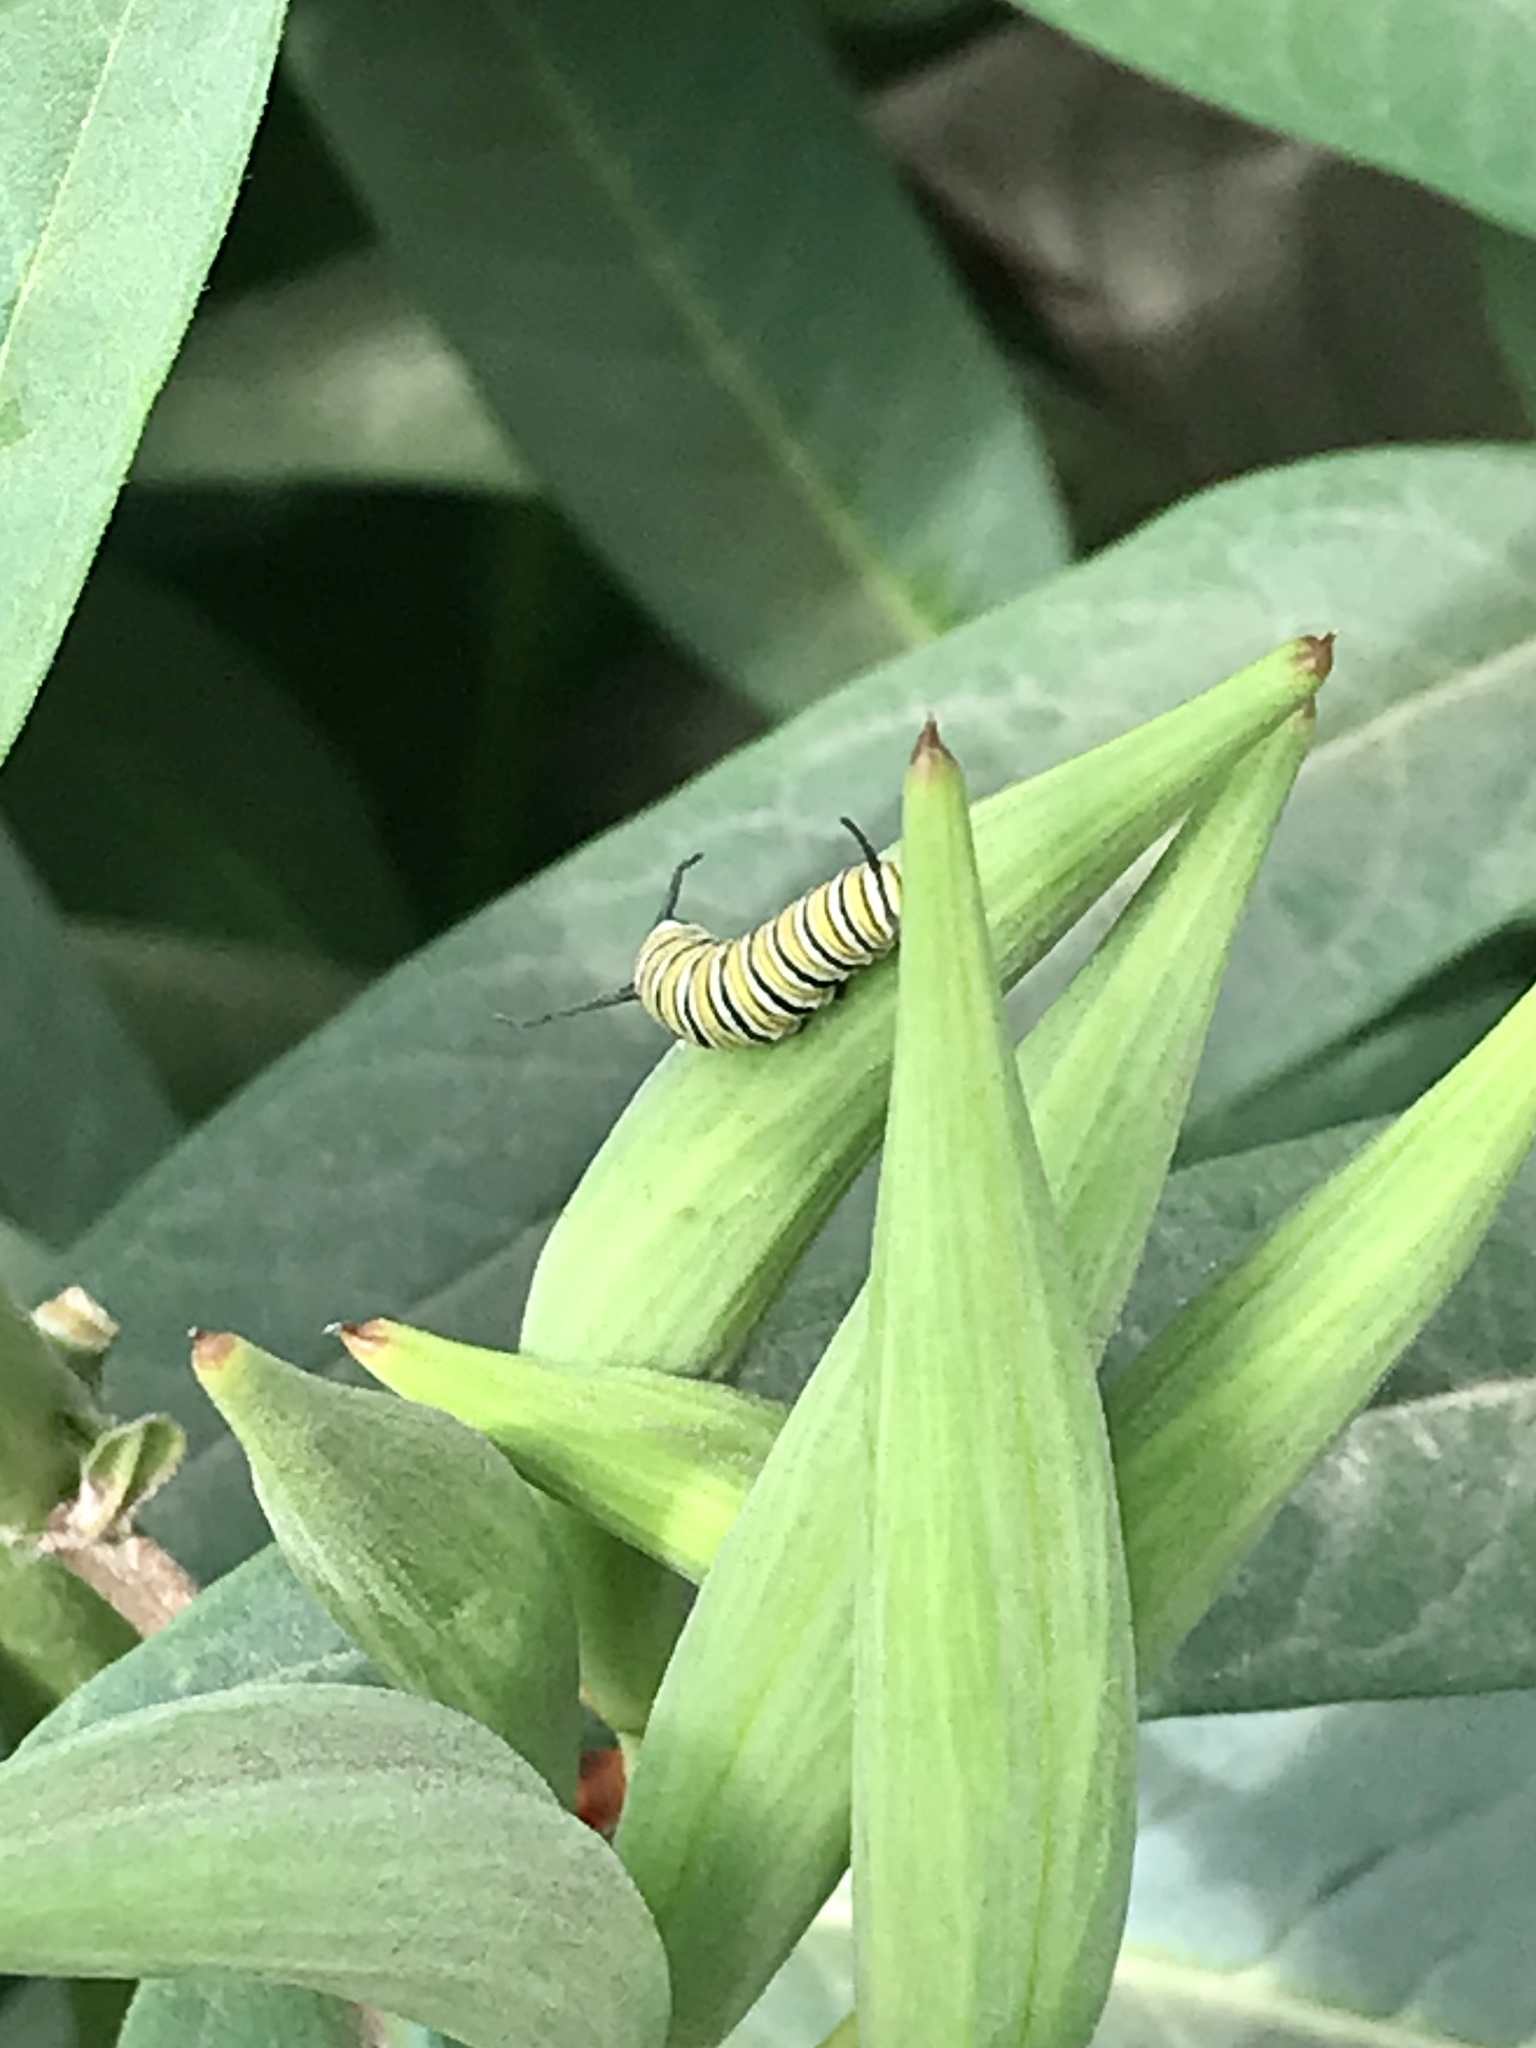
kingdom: Animalia
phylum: Arthropoda
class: Insecta
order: Lepidoptera
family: Nymphalidae
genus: Danaus
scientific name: Danaus plexippus
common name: Monarch
